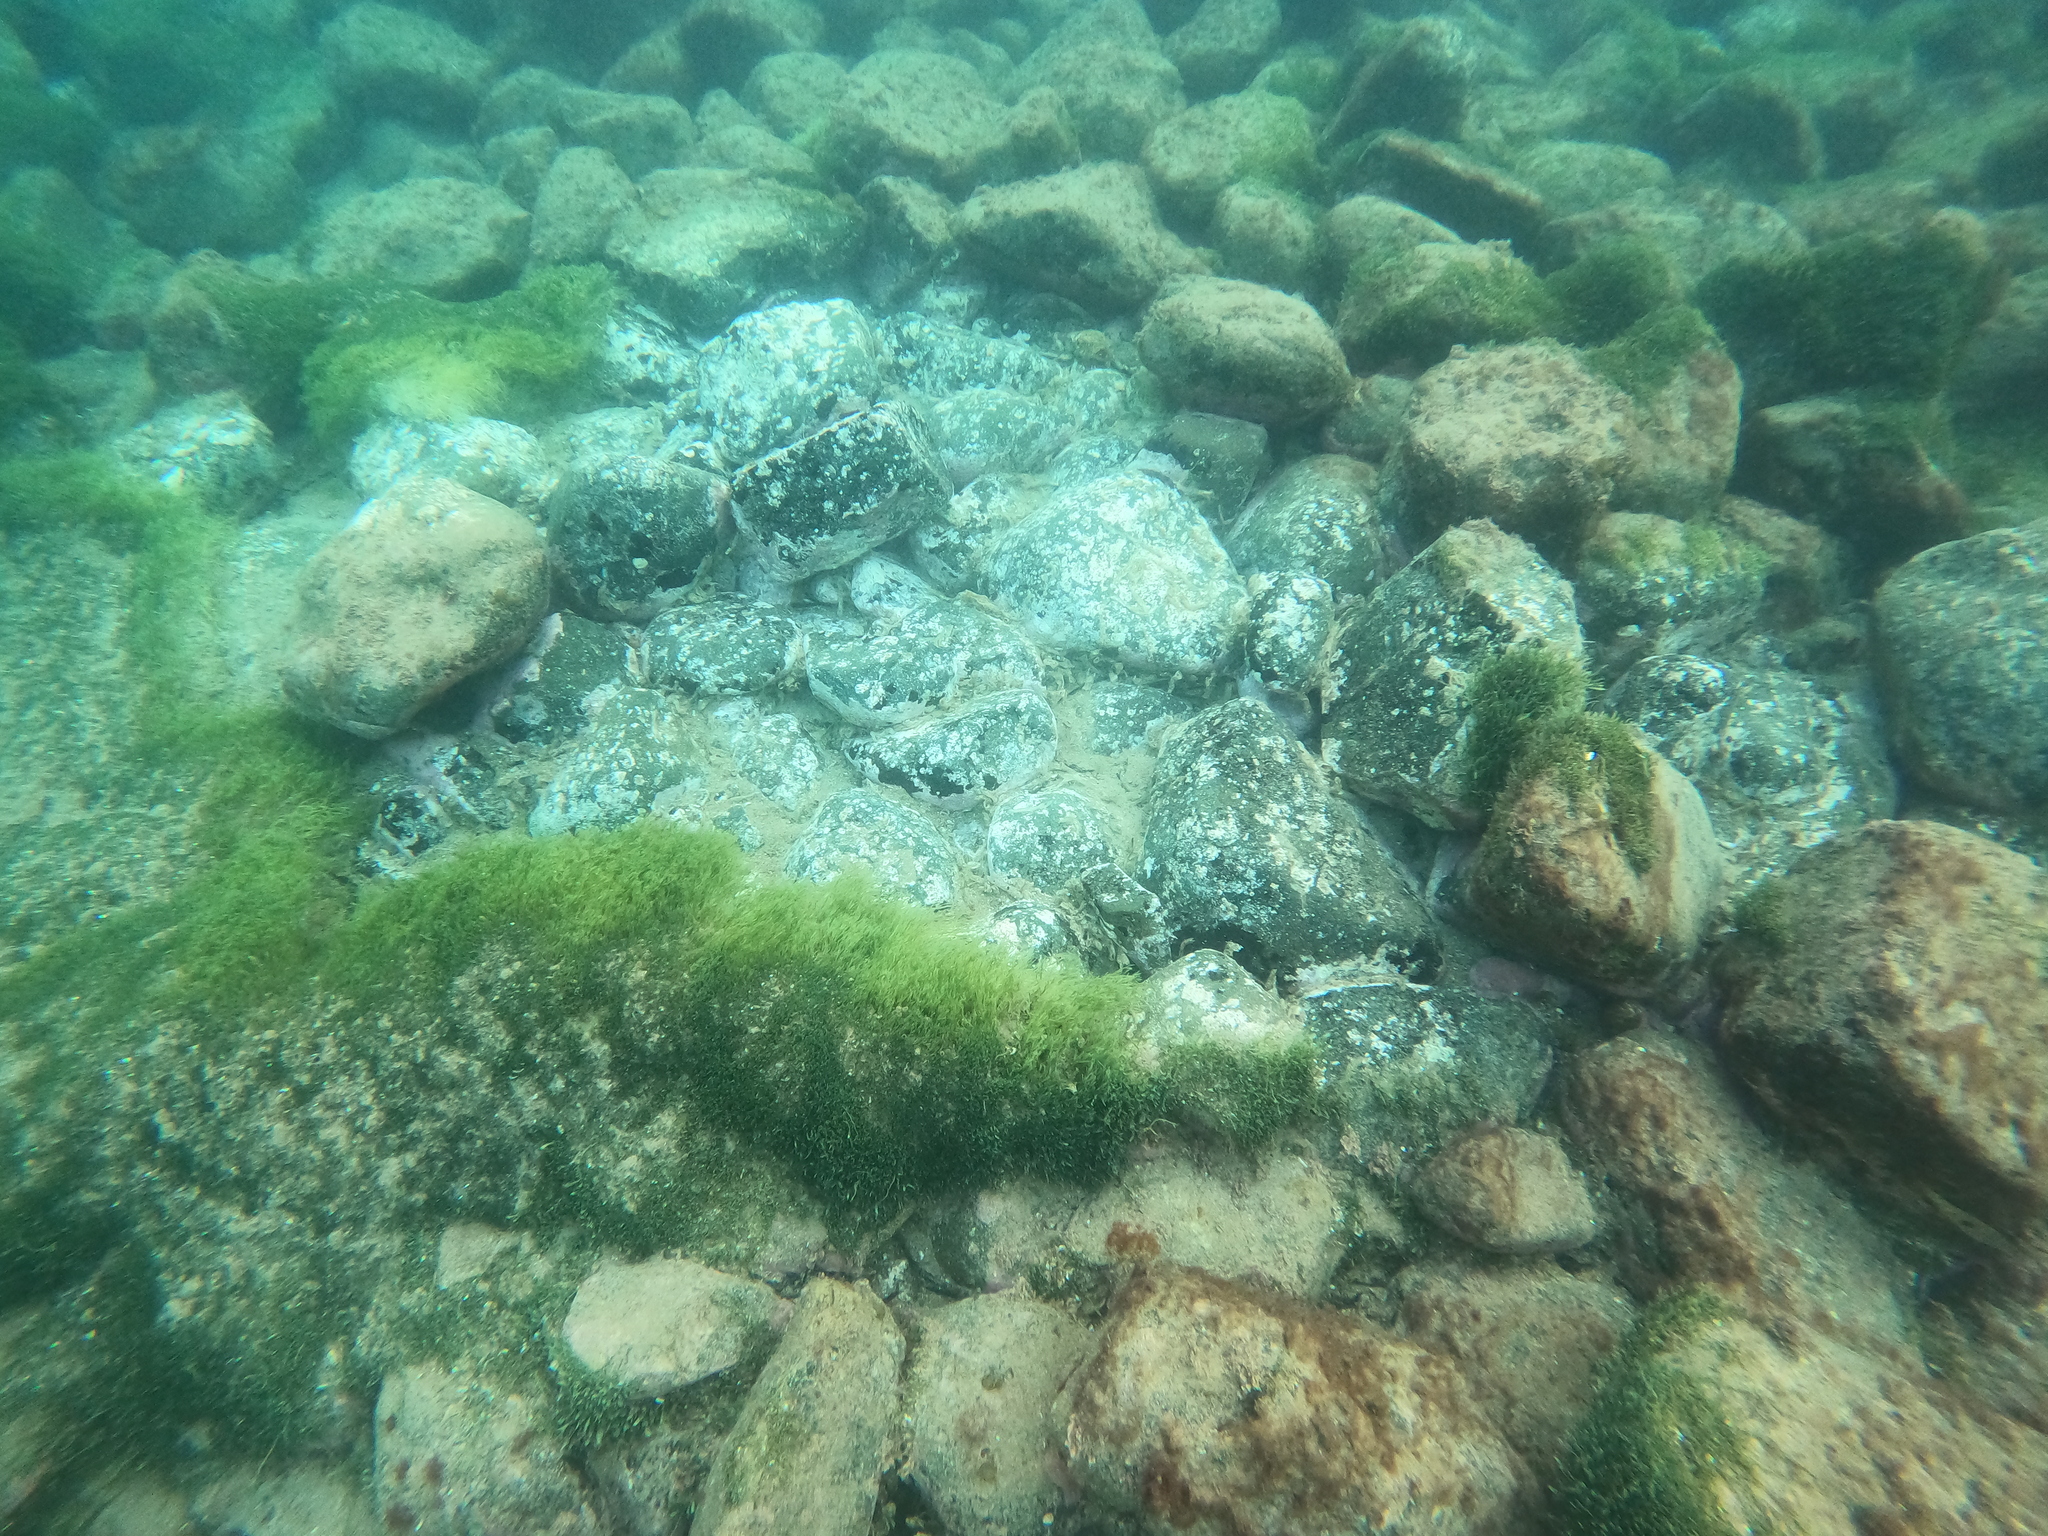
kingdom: Plantae
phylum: Chlorophyta
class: Ulvophyceae
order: Bryopsidales
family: Caulerpaceae
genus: Caulerpa
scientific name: Caulerpa brachypus
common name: Macroalgae
